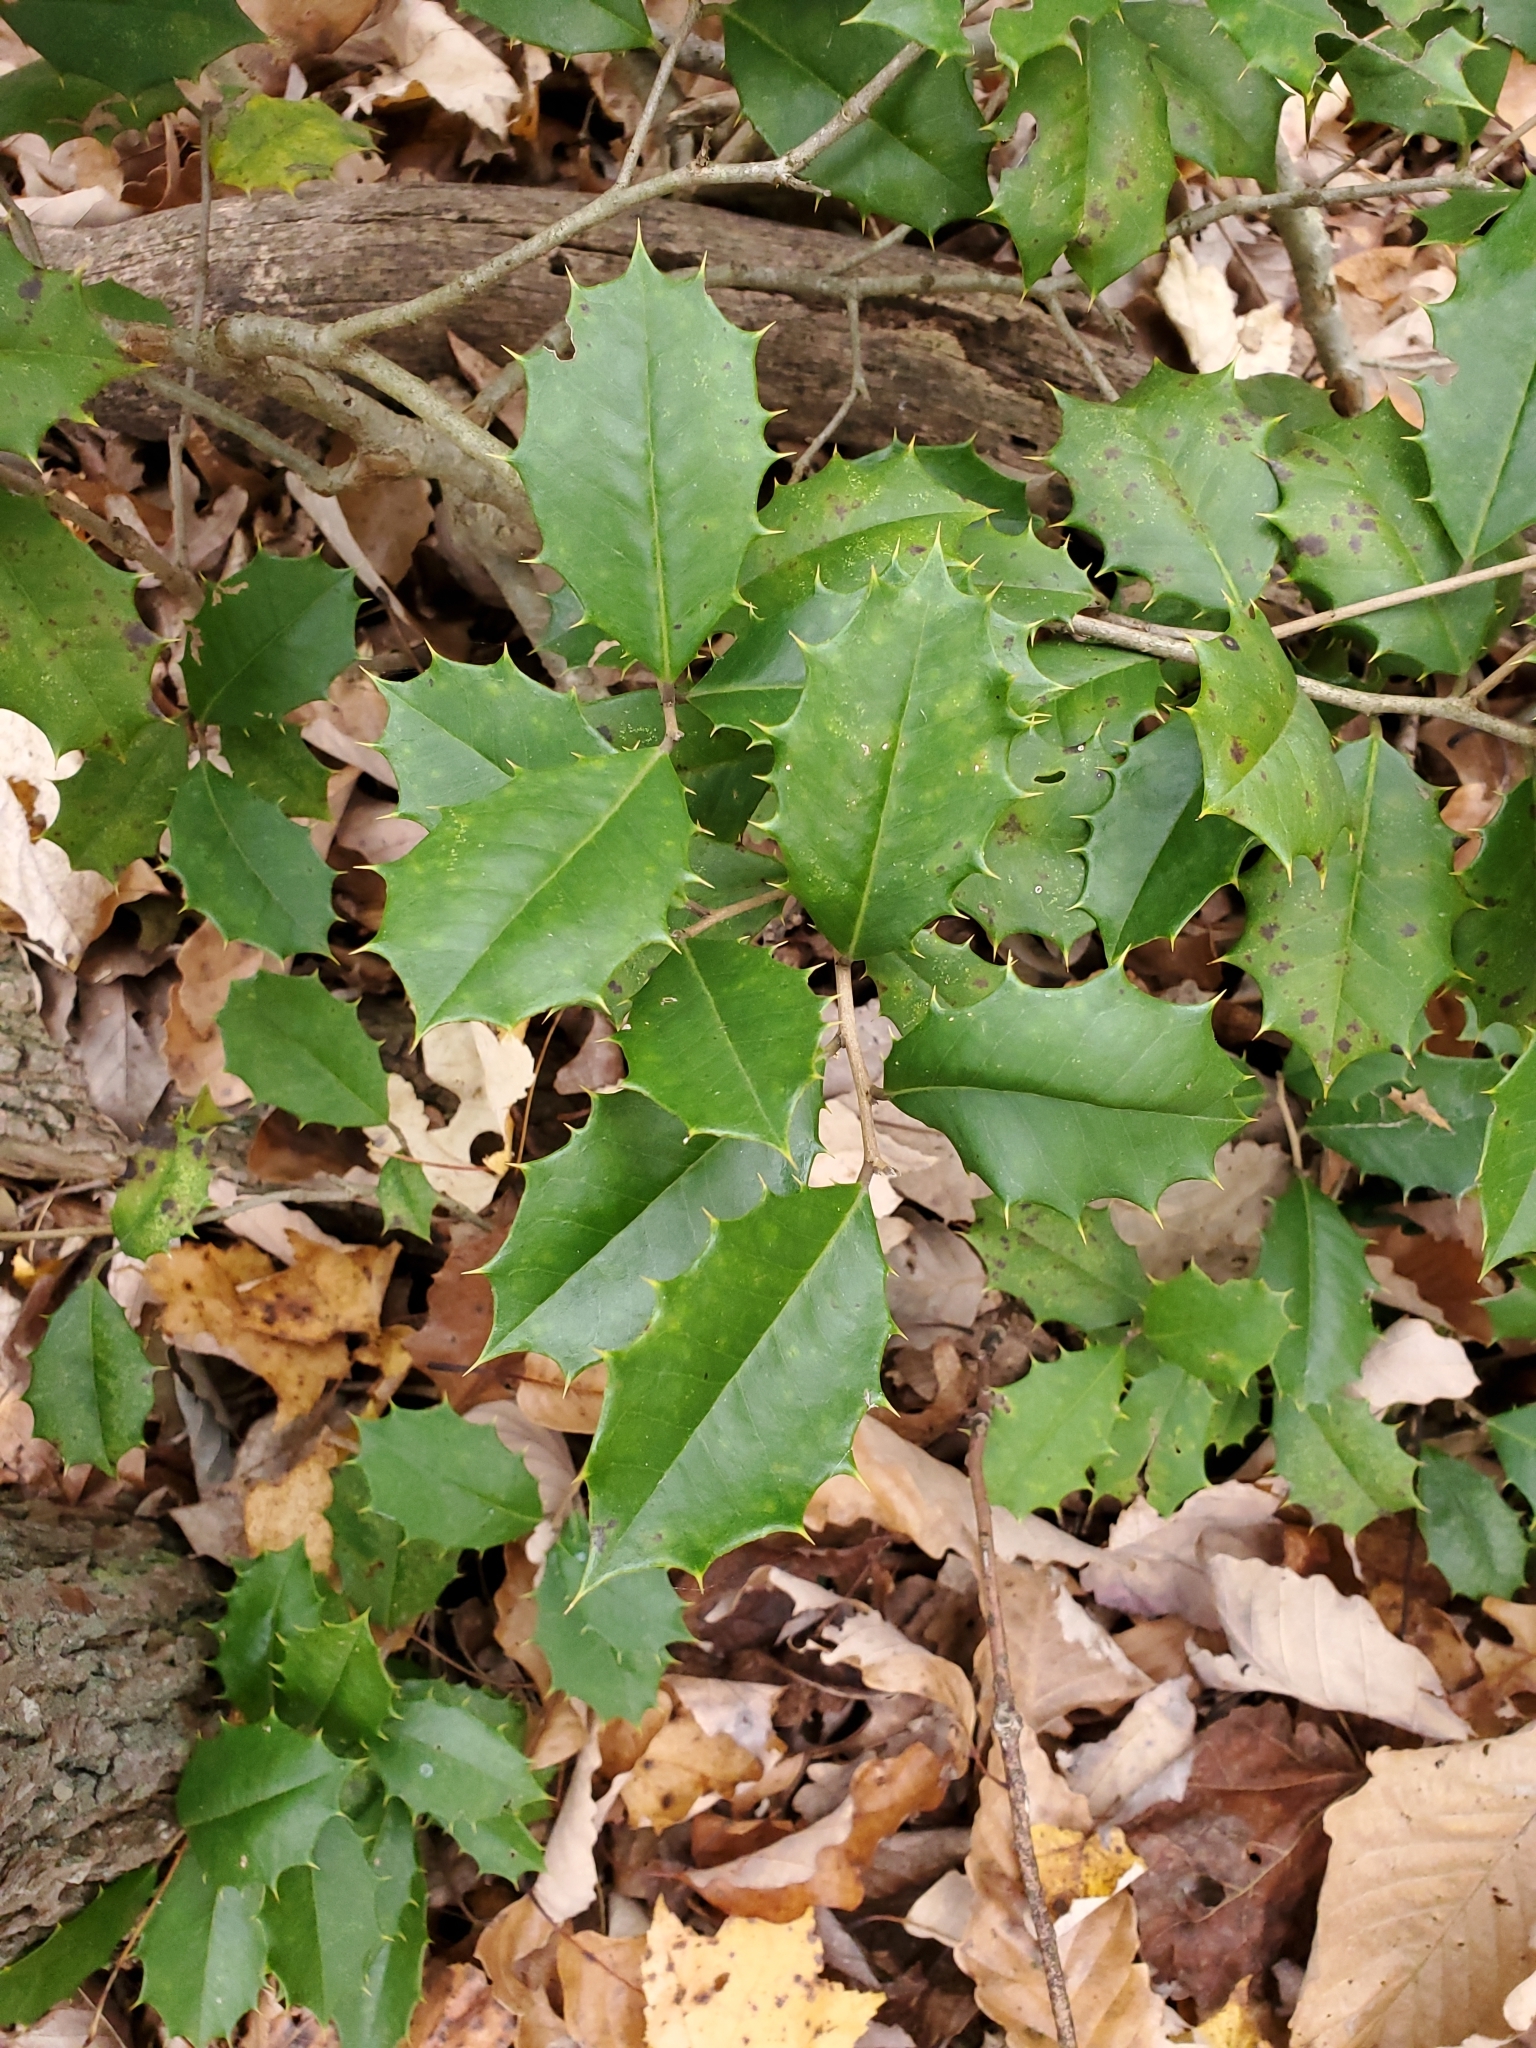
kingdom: Plantae
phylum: Tracheophyta
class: Magnoliopsida
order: Aquifoliales
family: Aquifoliaceae
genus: Ilex
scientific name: Ilex opaca
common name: American holly
